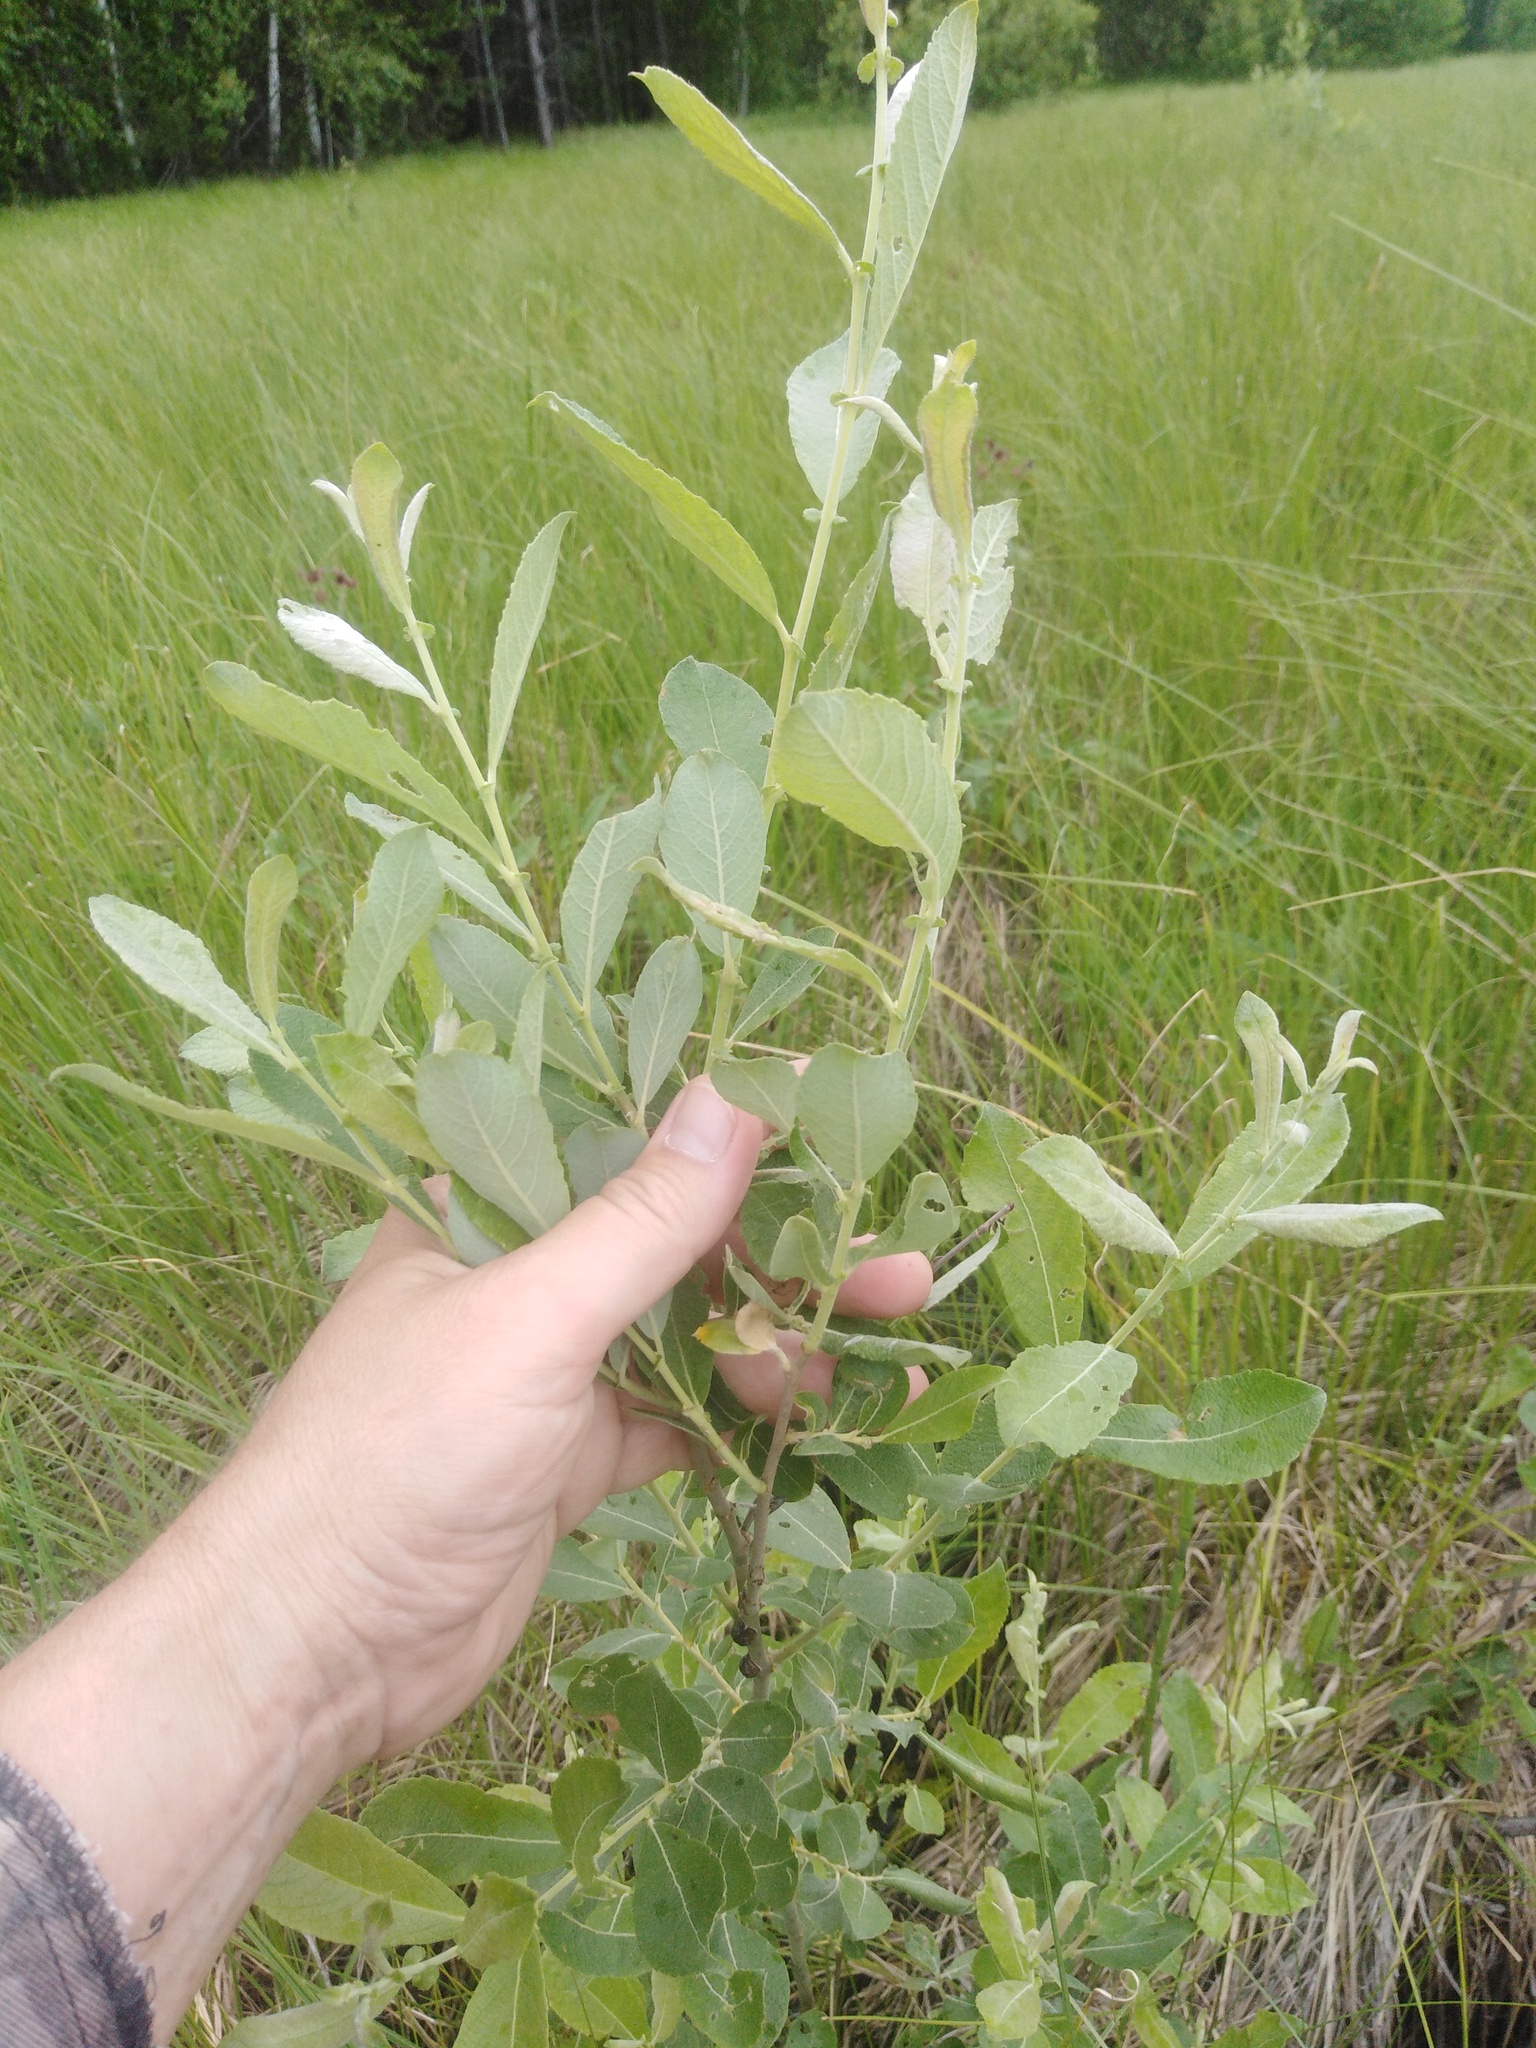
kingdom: Plantae
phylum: Tracheophyta
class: Magnoliopsida
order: Malpighiales
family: Salicaceae
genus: Salix
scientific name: Salix cinerea
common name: Common sallow
